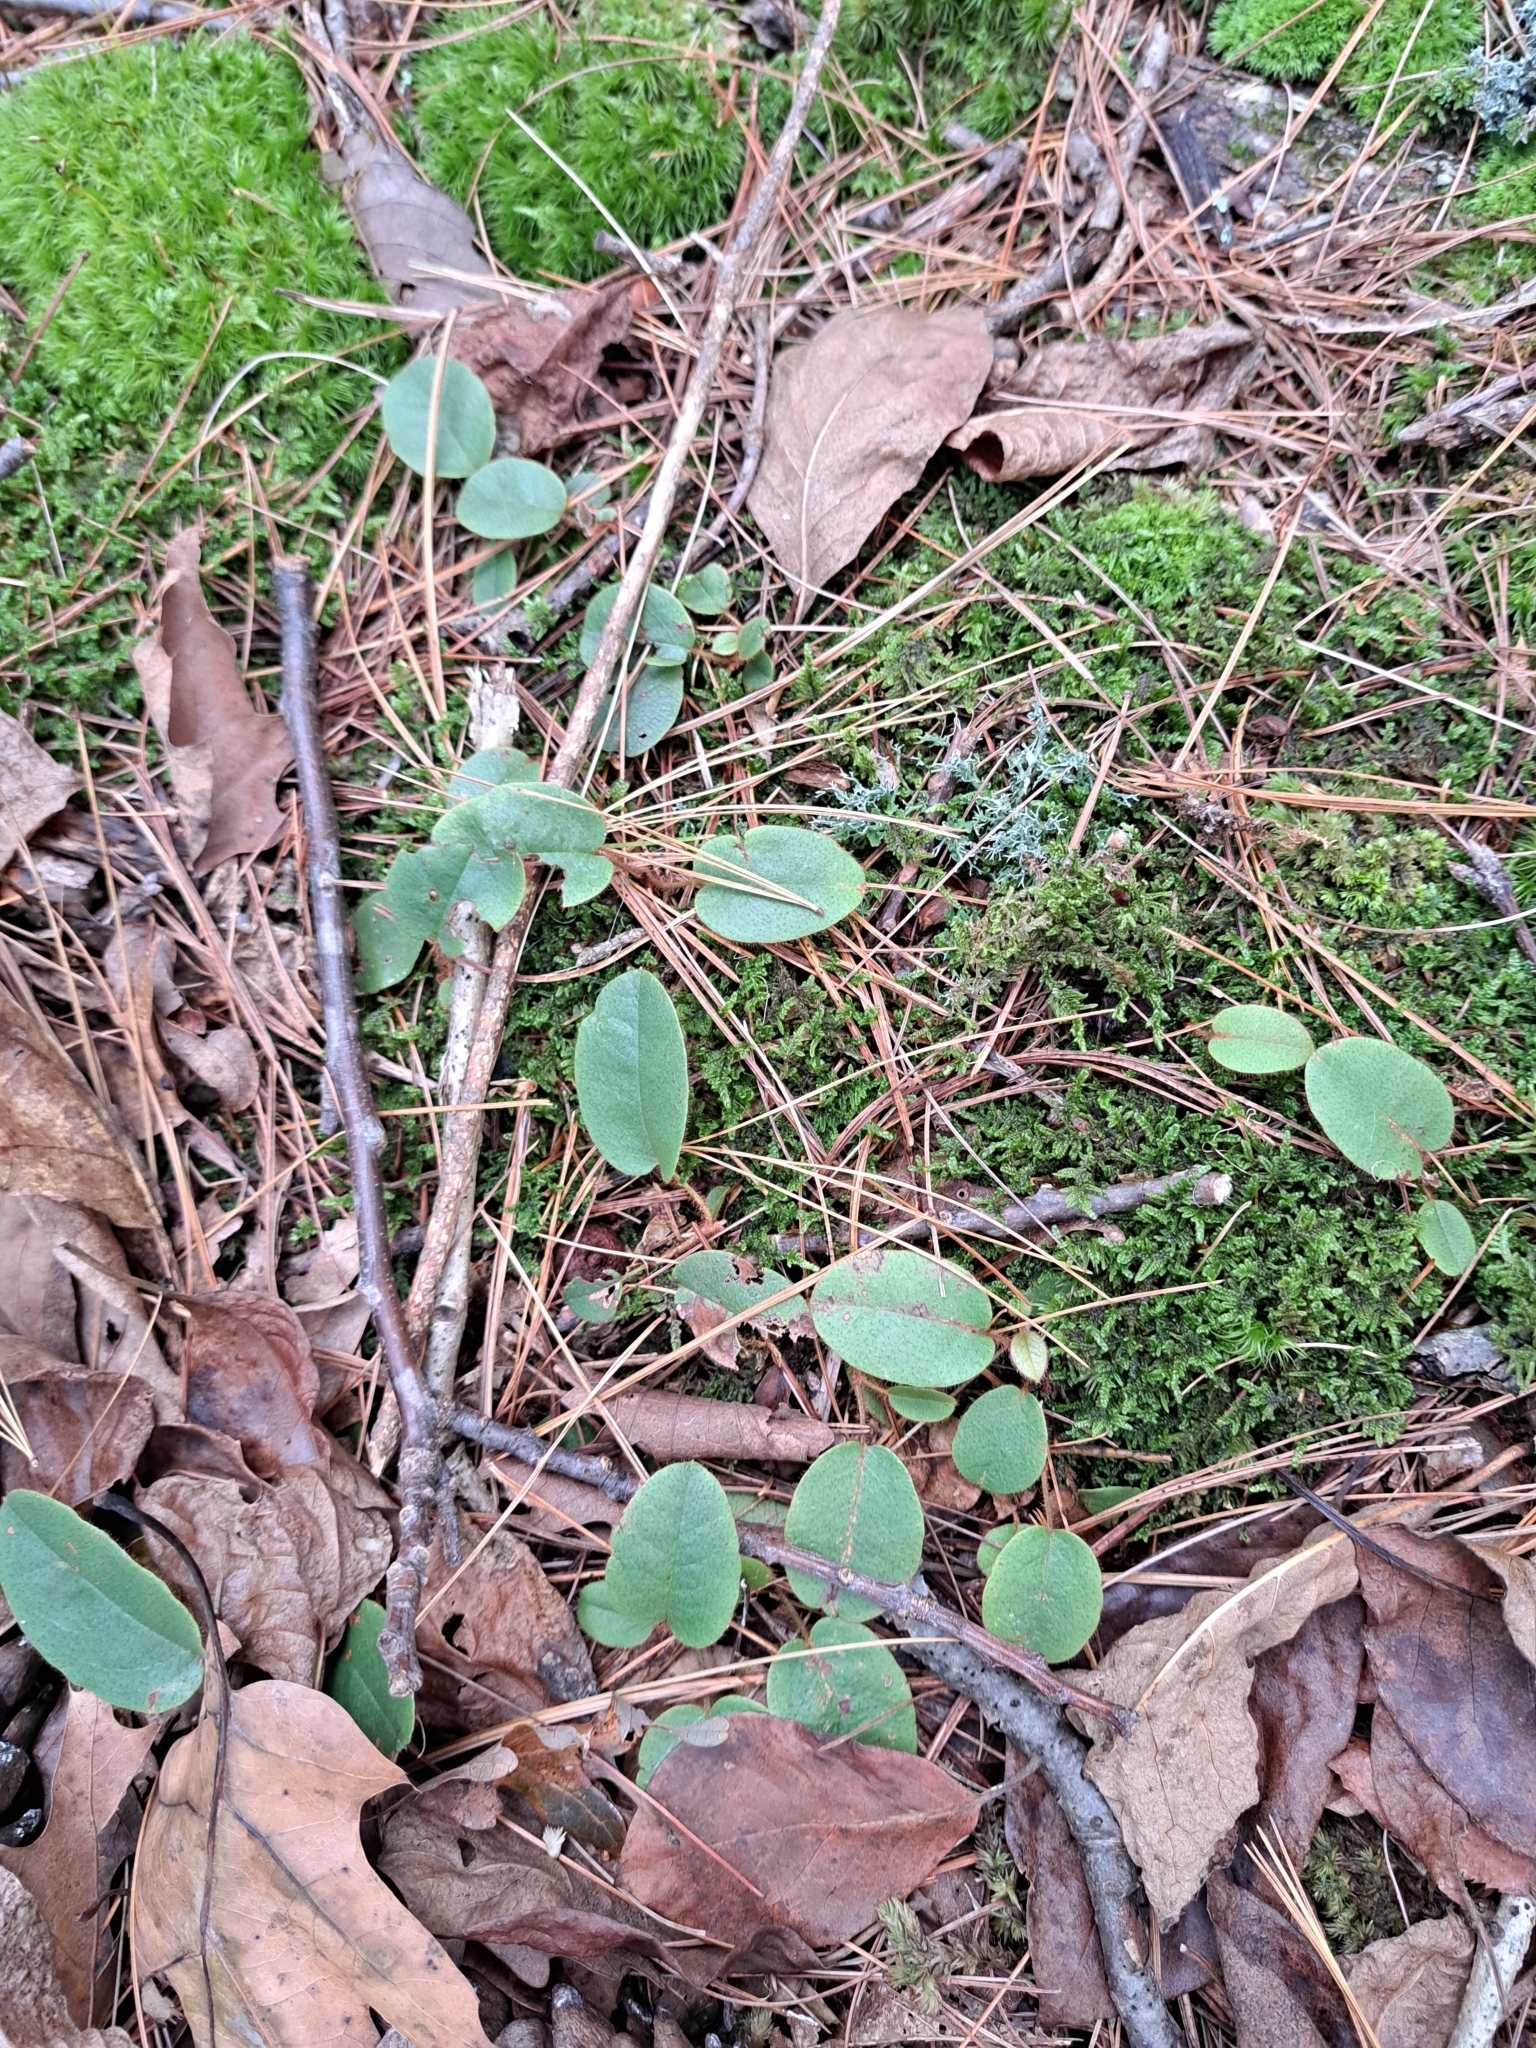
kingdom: Plantae
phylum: Tracheophyta
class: Magnoliopsida
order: Ericales
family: Ericaceae
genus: Epigaea
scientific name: Epigaea repens
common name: Gravelroot
